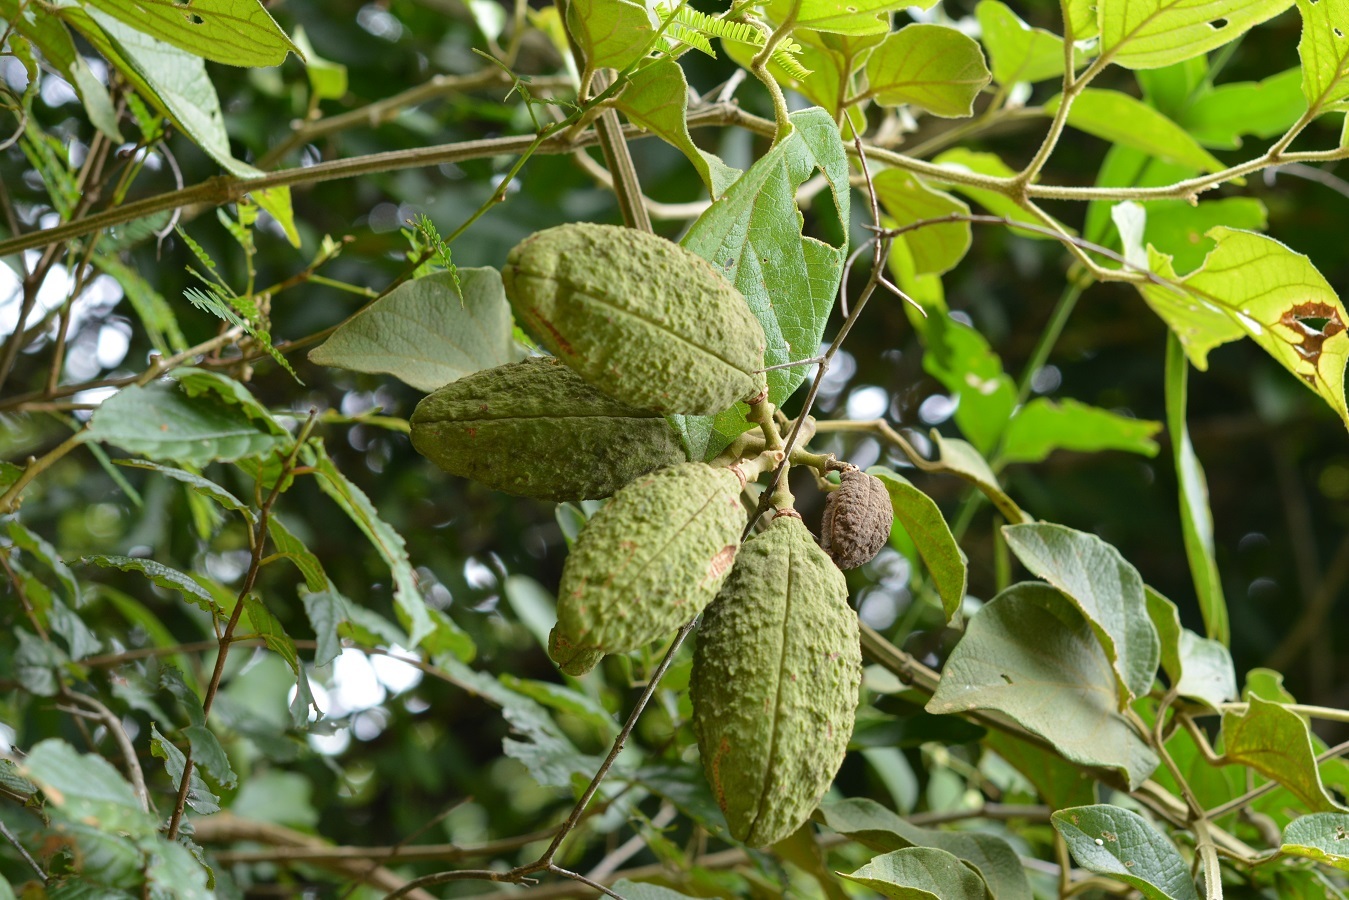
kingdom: Plantae
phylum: Tracheophyta
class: Magnoliopsida
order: Lamiales
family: Bignoniaceae
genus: Amphilophium
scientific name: Amphilophium paniculatum
